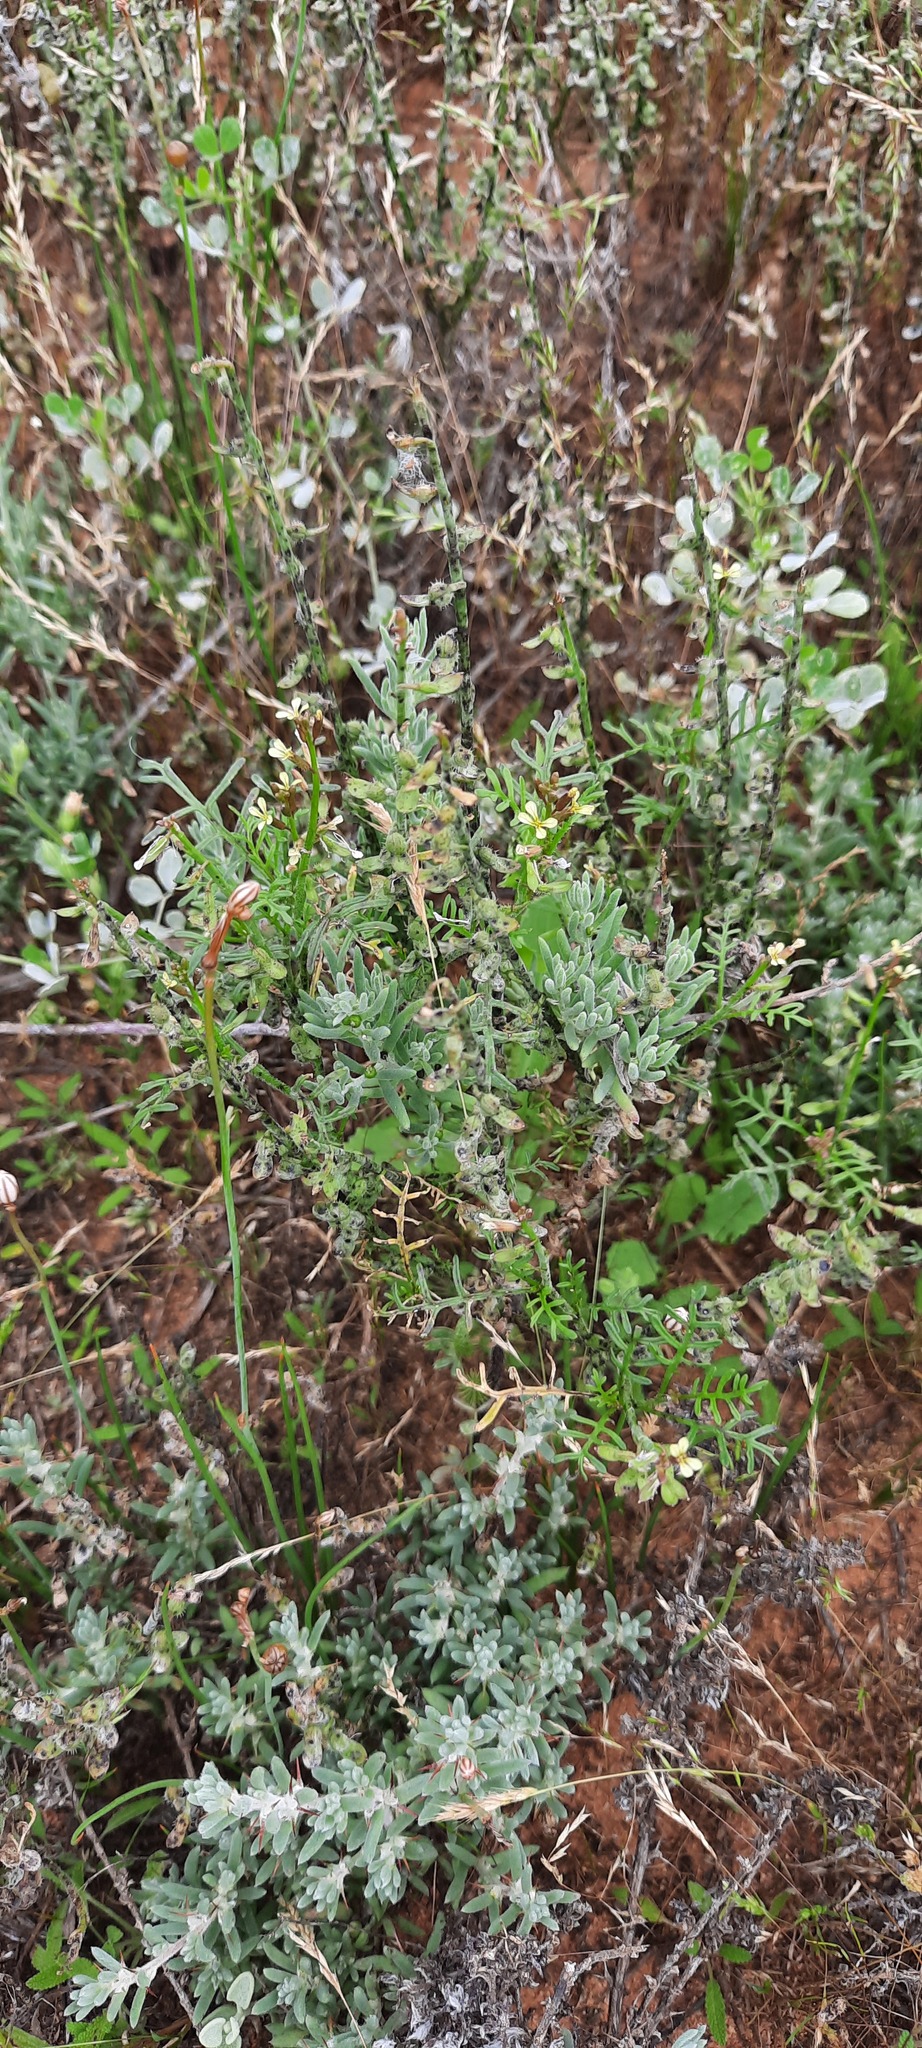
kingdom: Plantae
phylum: Tracheophyta
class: Magnoliopsida
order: Brassicales
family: Brassicaceae
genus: Carrichtera
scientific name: Carrichtera annua
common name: Cress rocket
